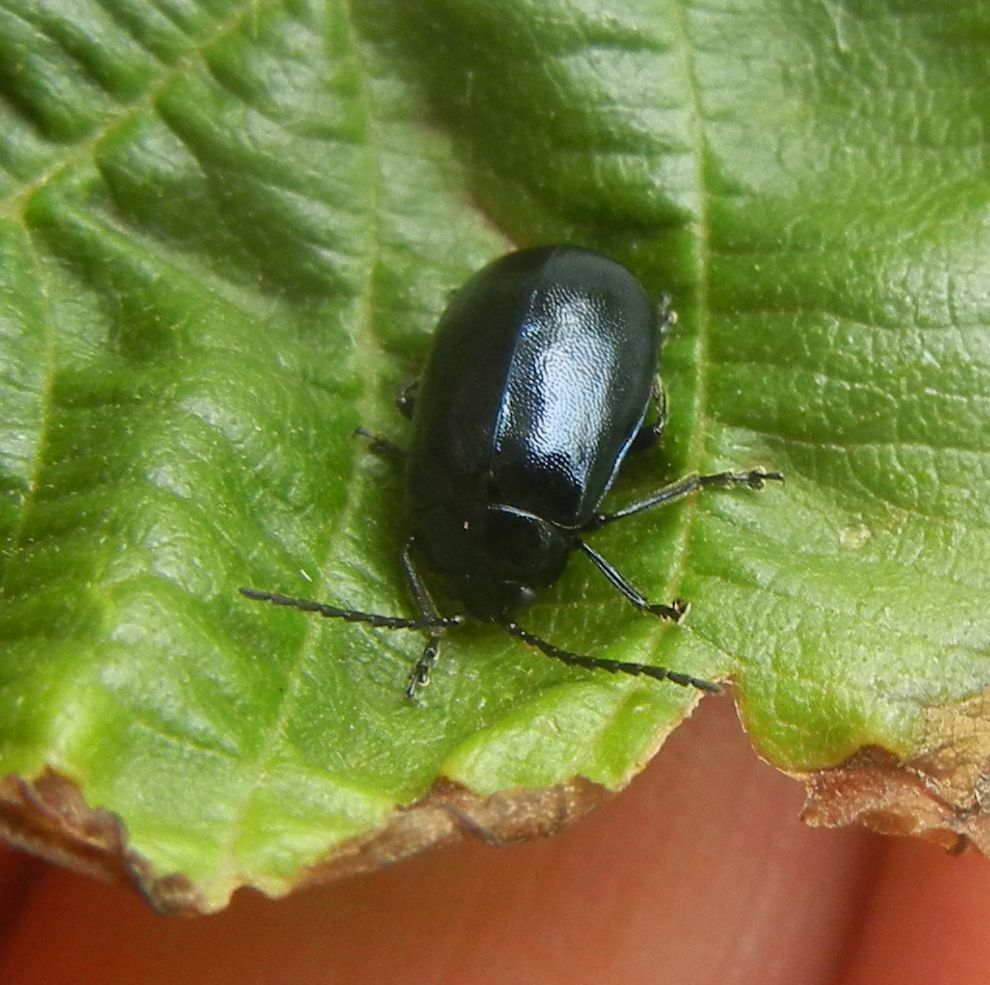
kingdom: Animalia
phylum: Arthropoda
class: Insecta
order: Coleoptera
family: Chrysomelidae
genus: Agelastica
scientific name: Agelastica alni
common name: Alder leaf beetle
